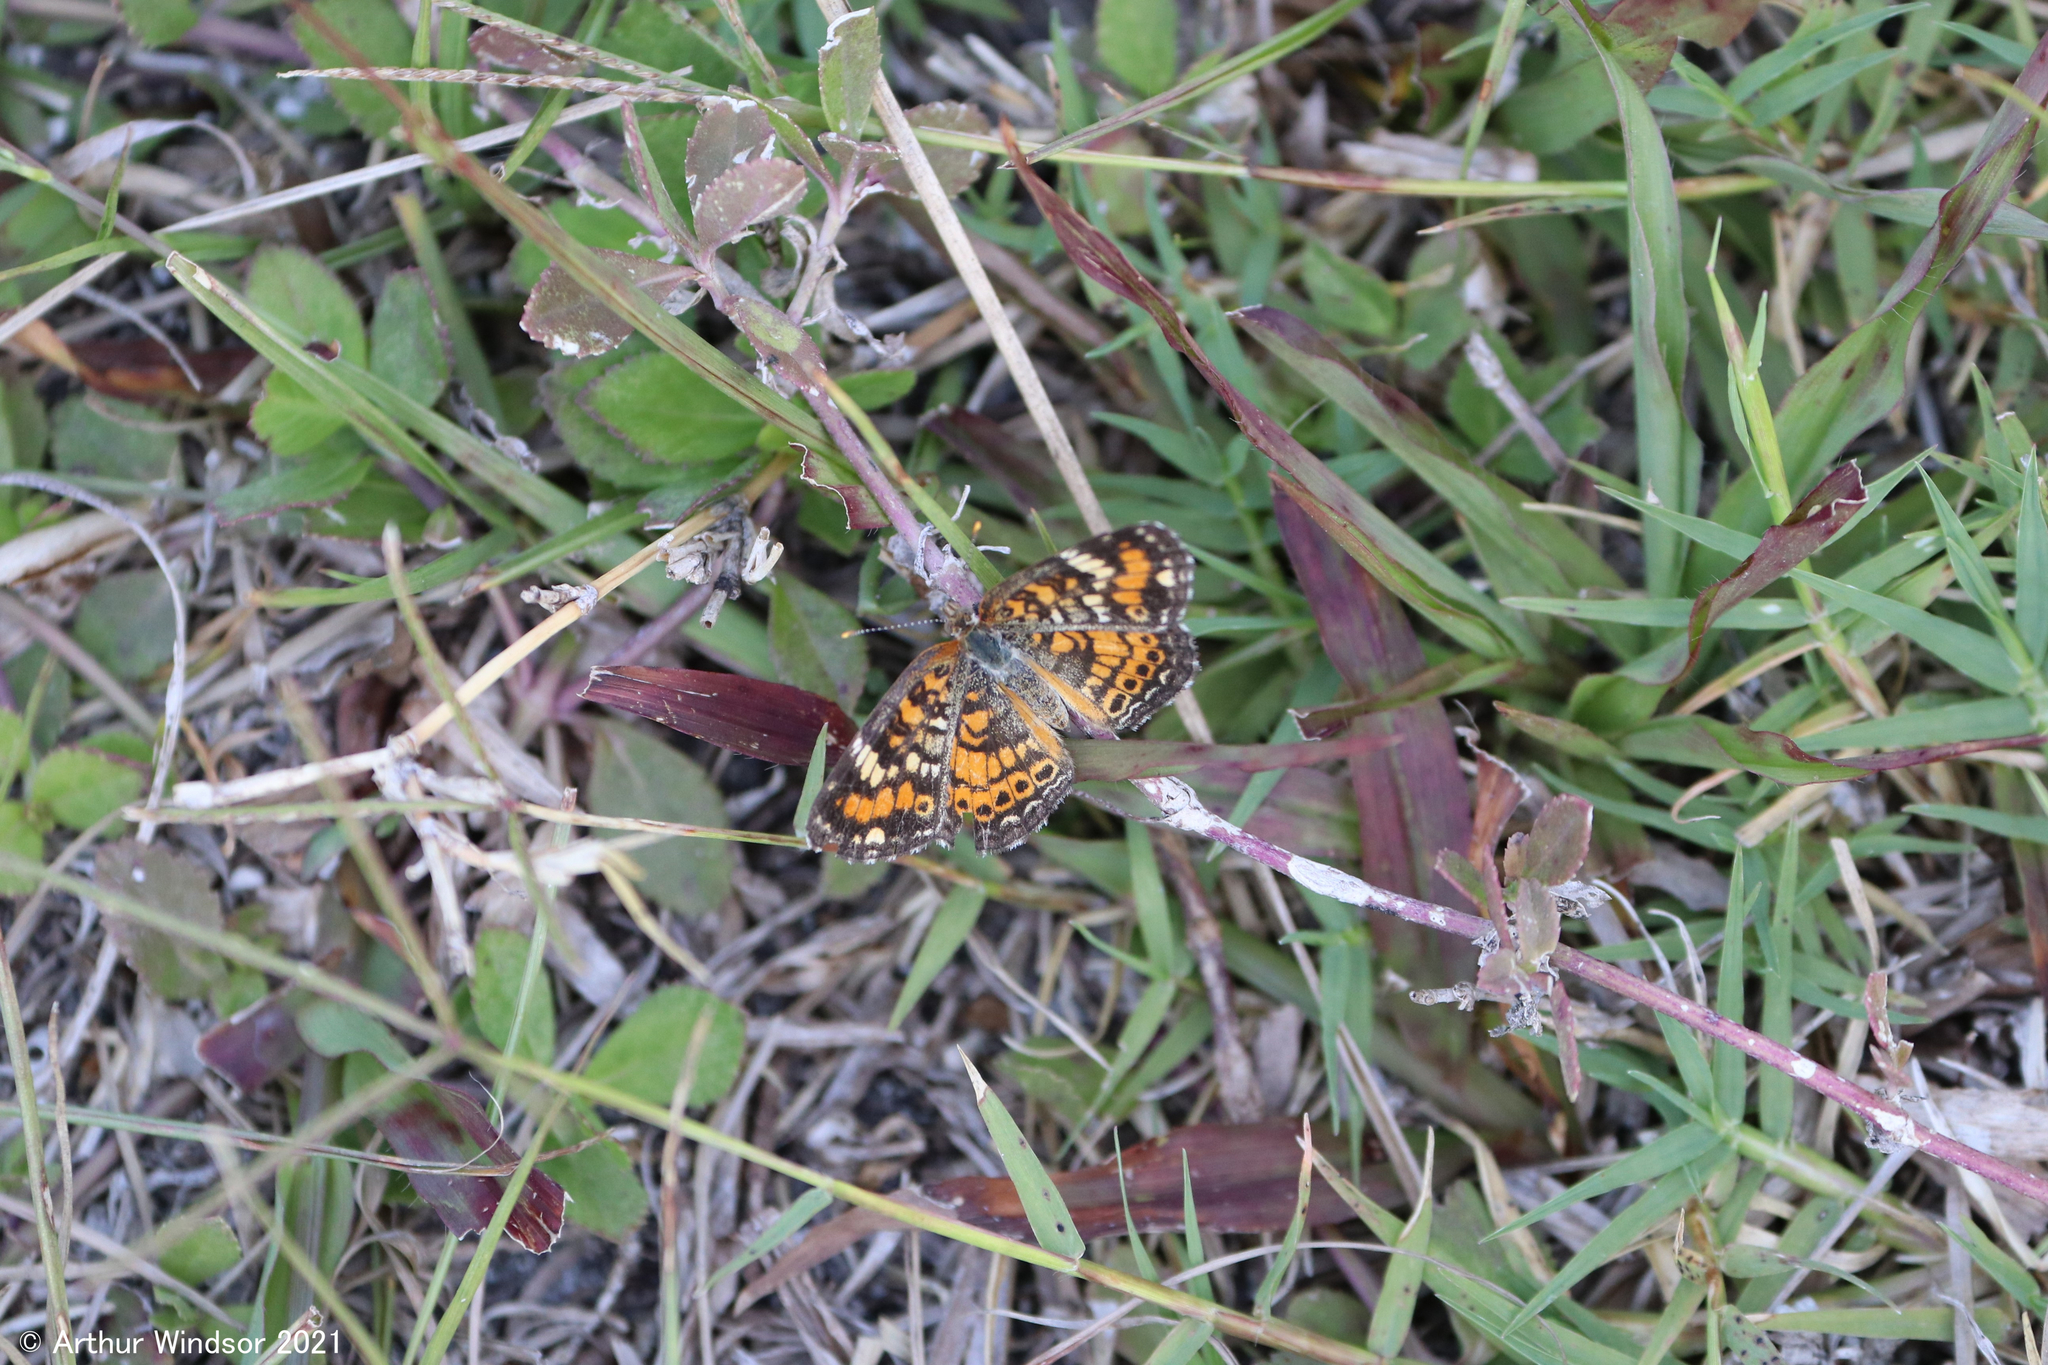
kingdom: Animalia
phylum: Arthropoda
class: Insecta
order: Lepidoptera
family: Nymphalidae
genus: Phyciodes
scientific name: Phyciodes phaon
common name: Phaon crescent
